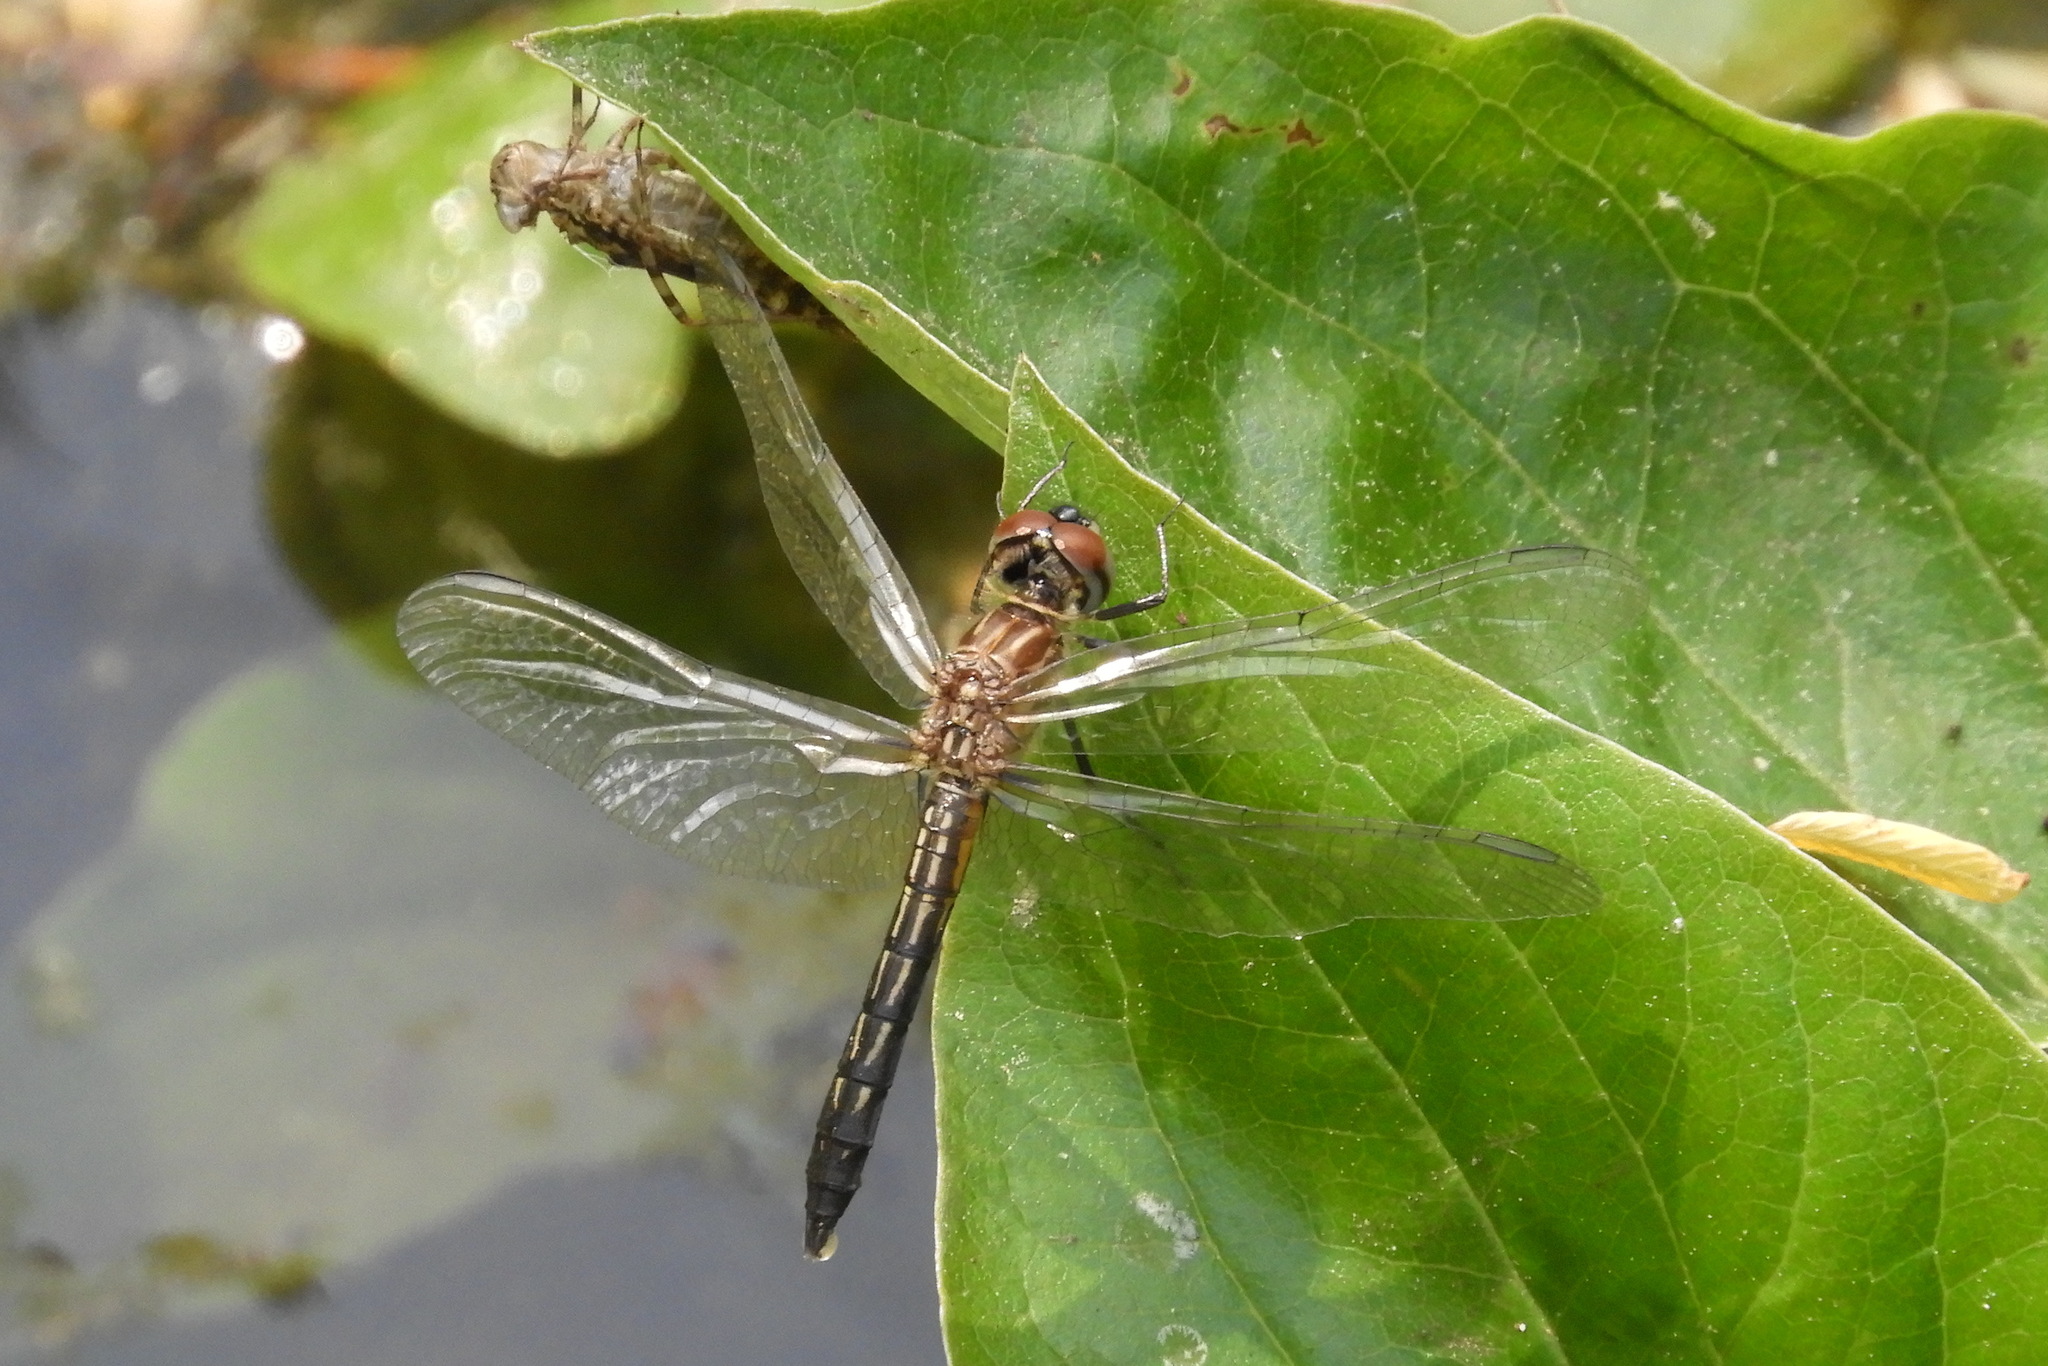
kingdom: Animalia
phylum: Arthropoda
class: Insecta
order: Odonata
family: Libellulidae
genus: Pachydiplax
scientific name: Pachydiplax longipennis
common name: Blue dasher
